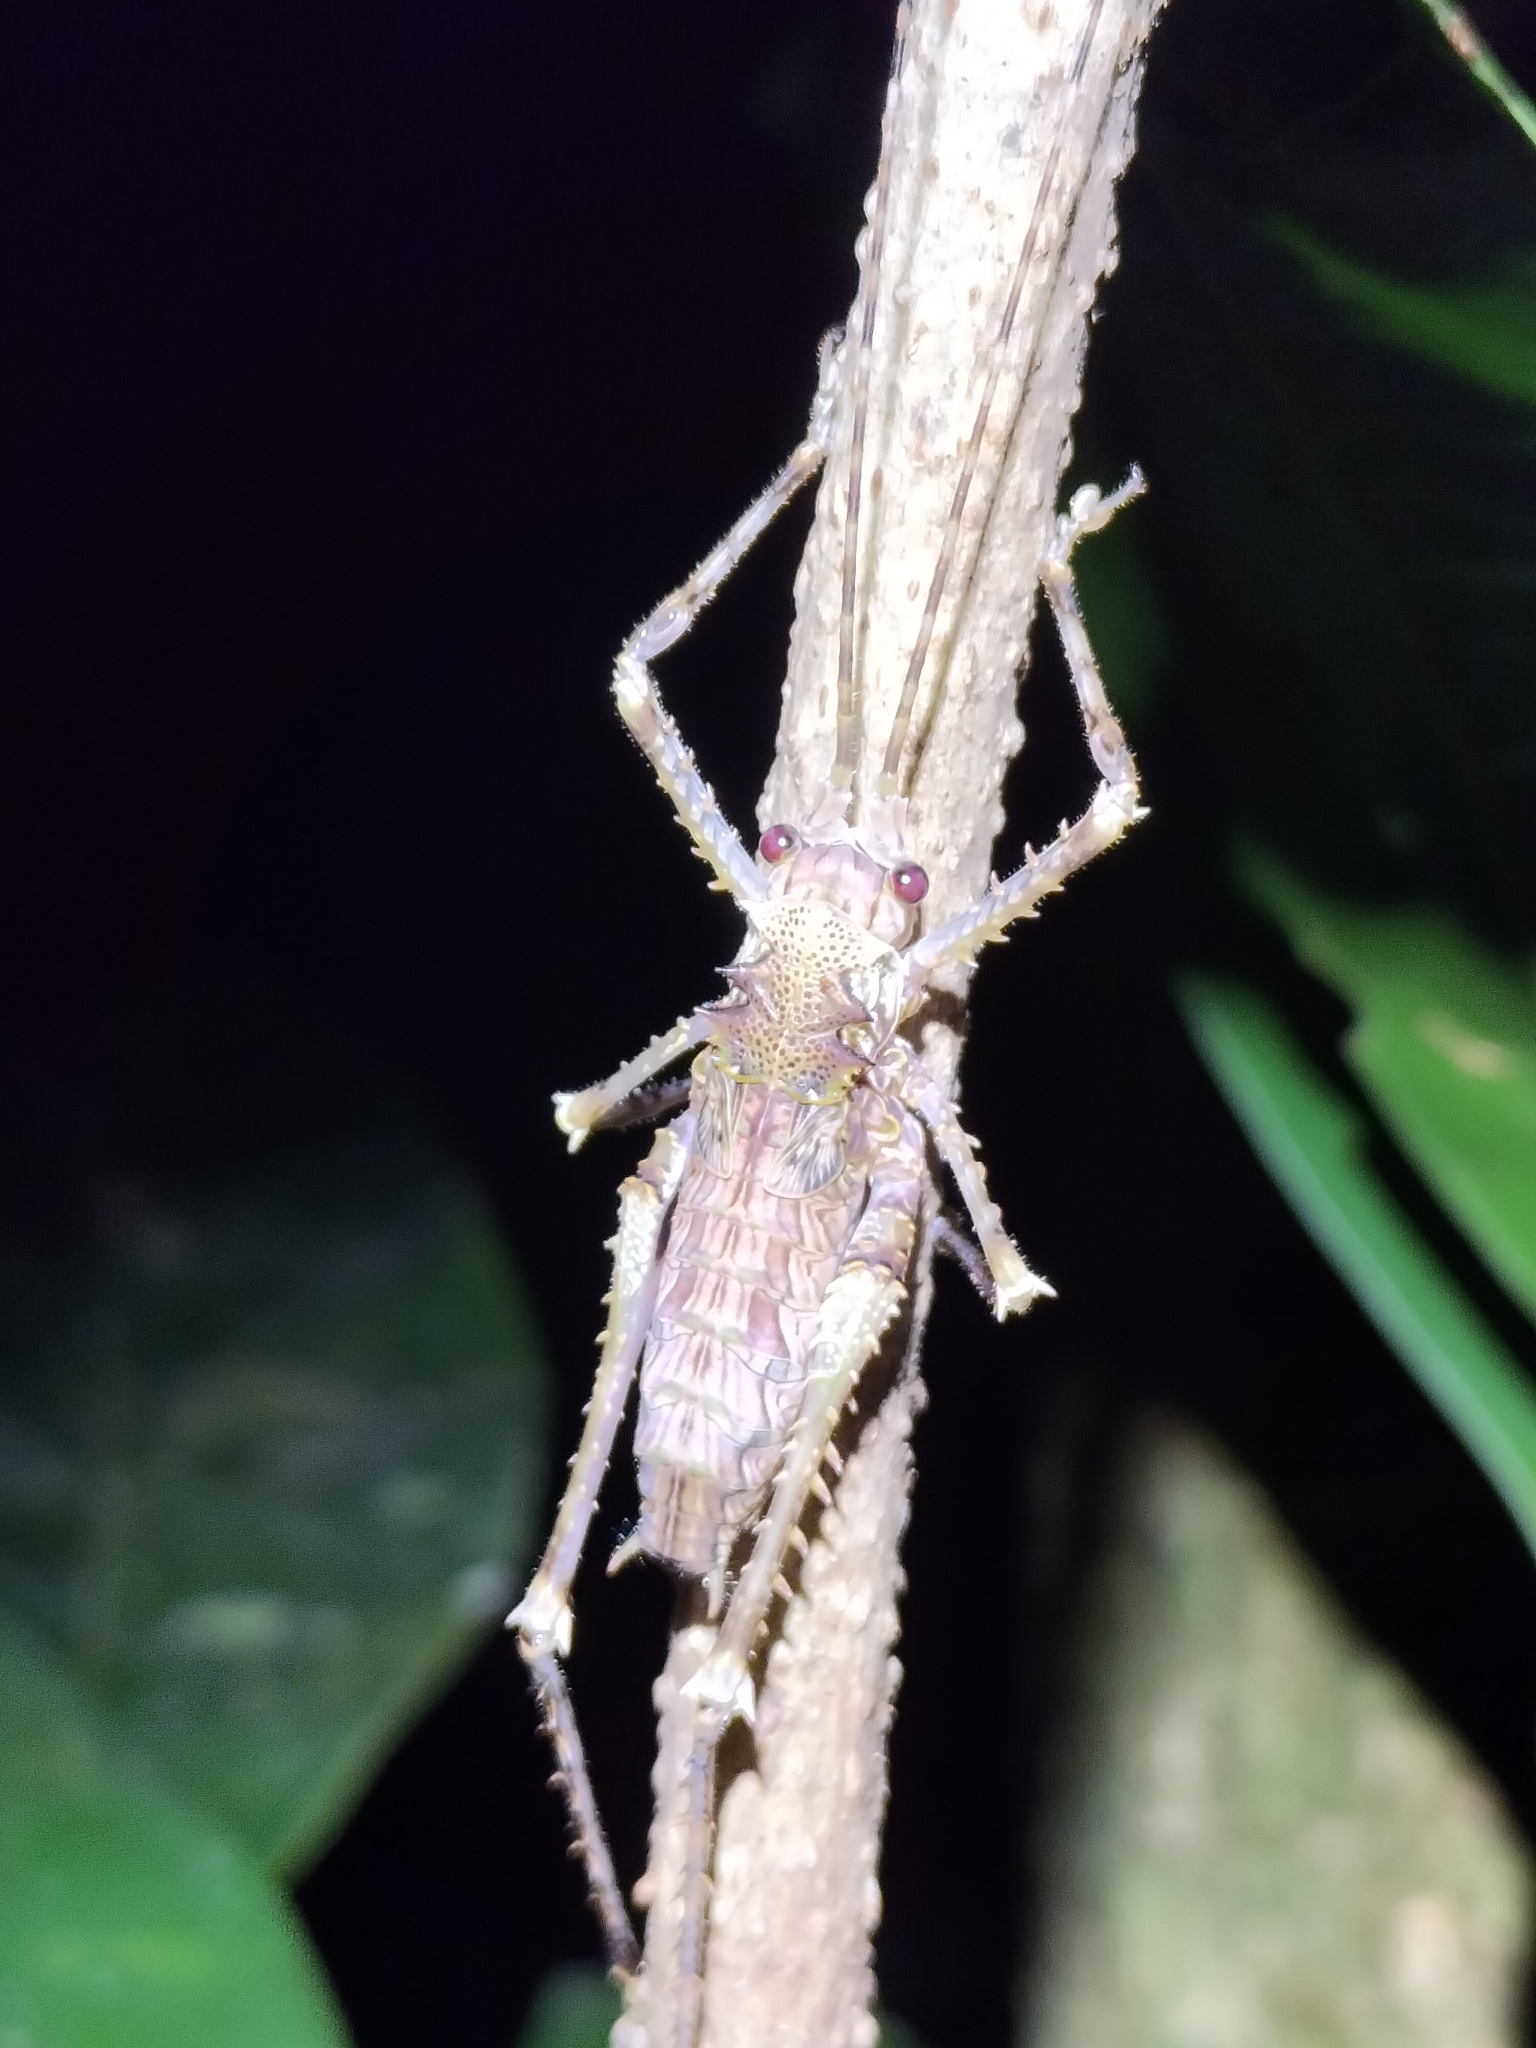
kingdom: Animalia
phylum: Arthropoda
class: Insecta
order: Orthoptera
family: Tettigoniidae
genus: Phricta
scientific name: Phricta spinosa
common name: Giant spiny forest katydid
